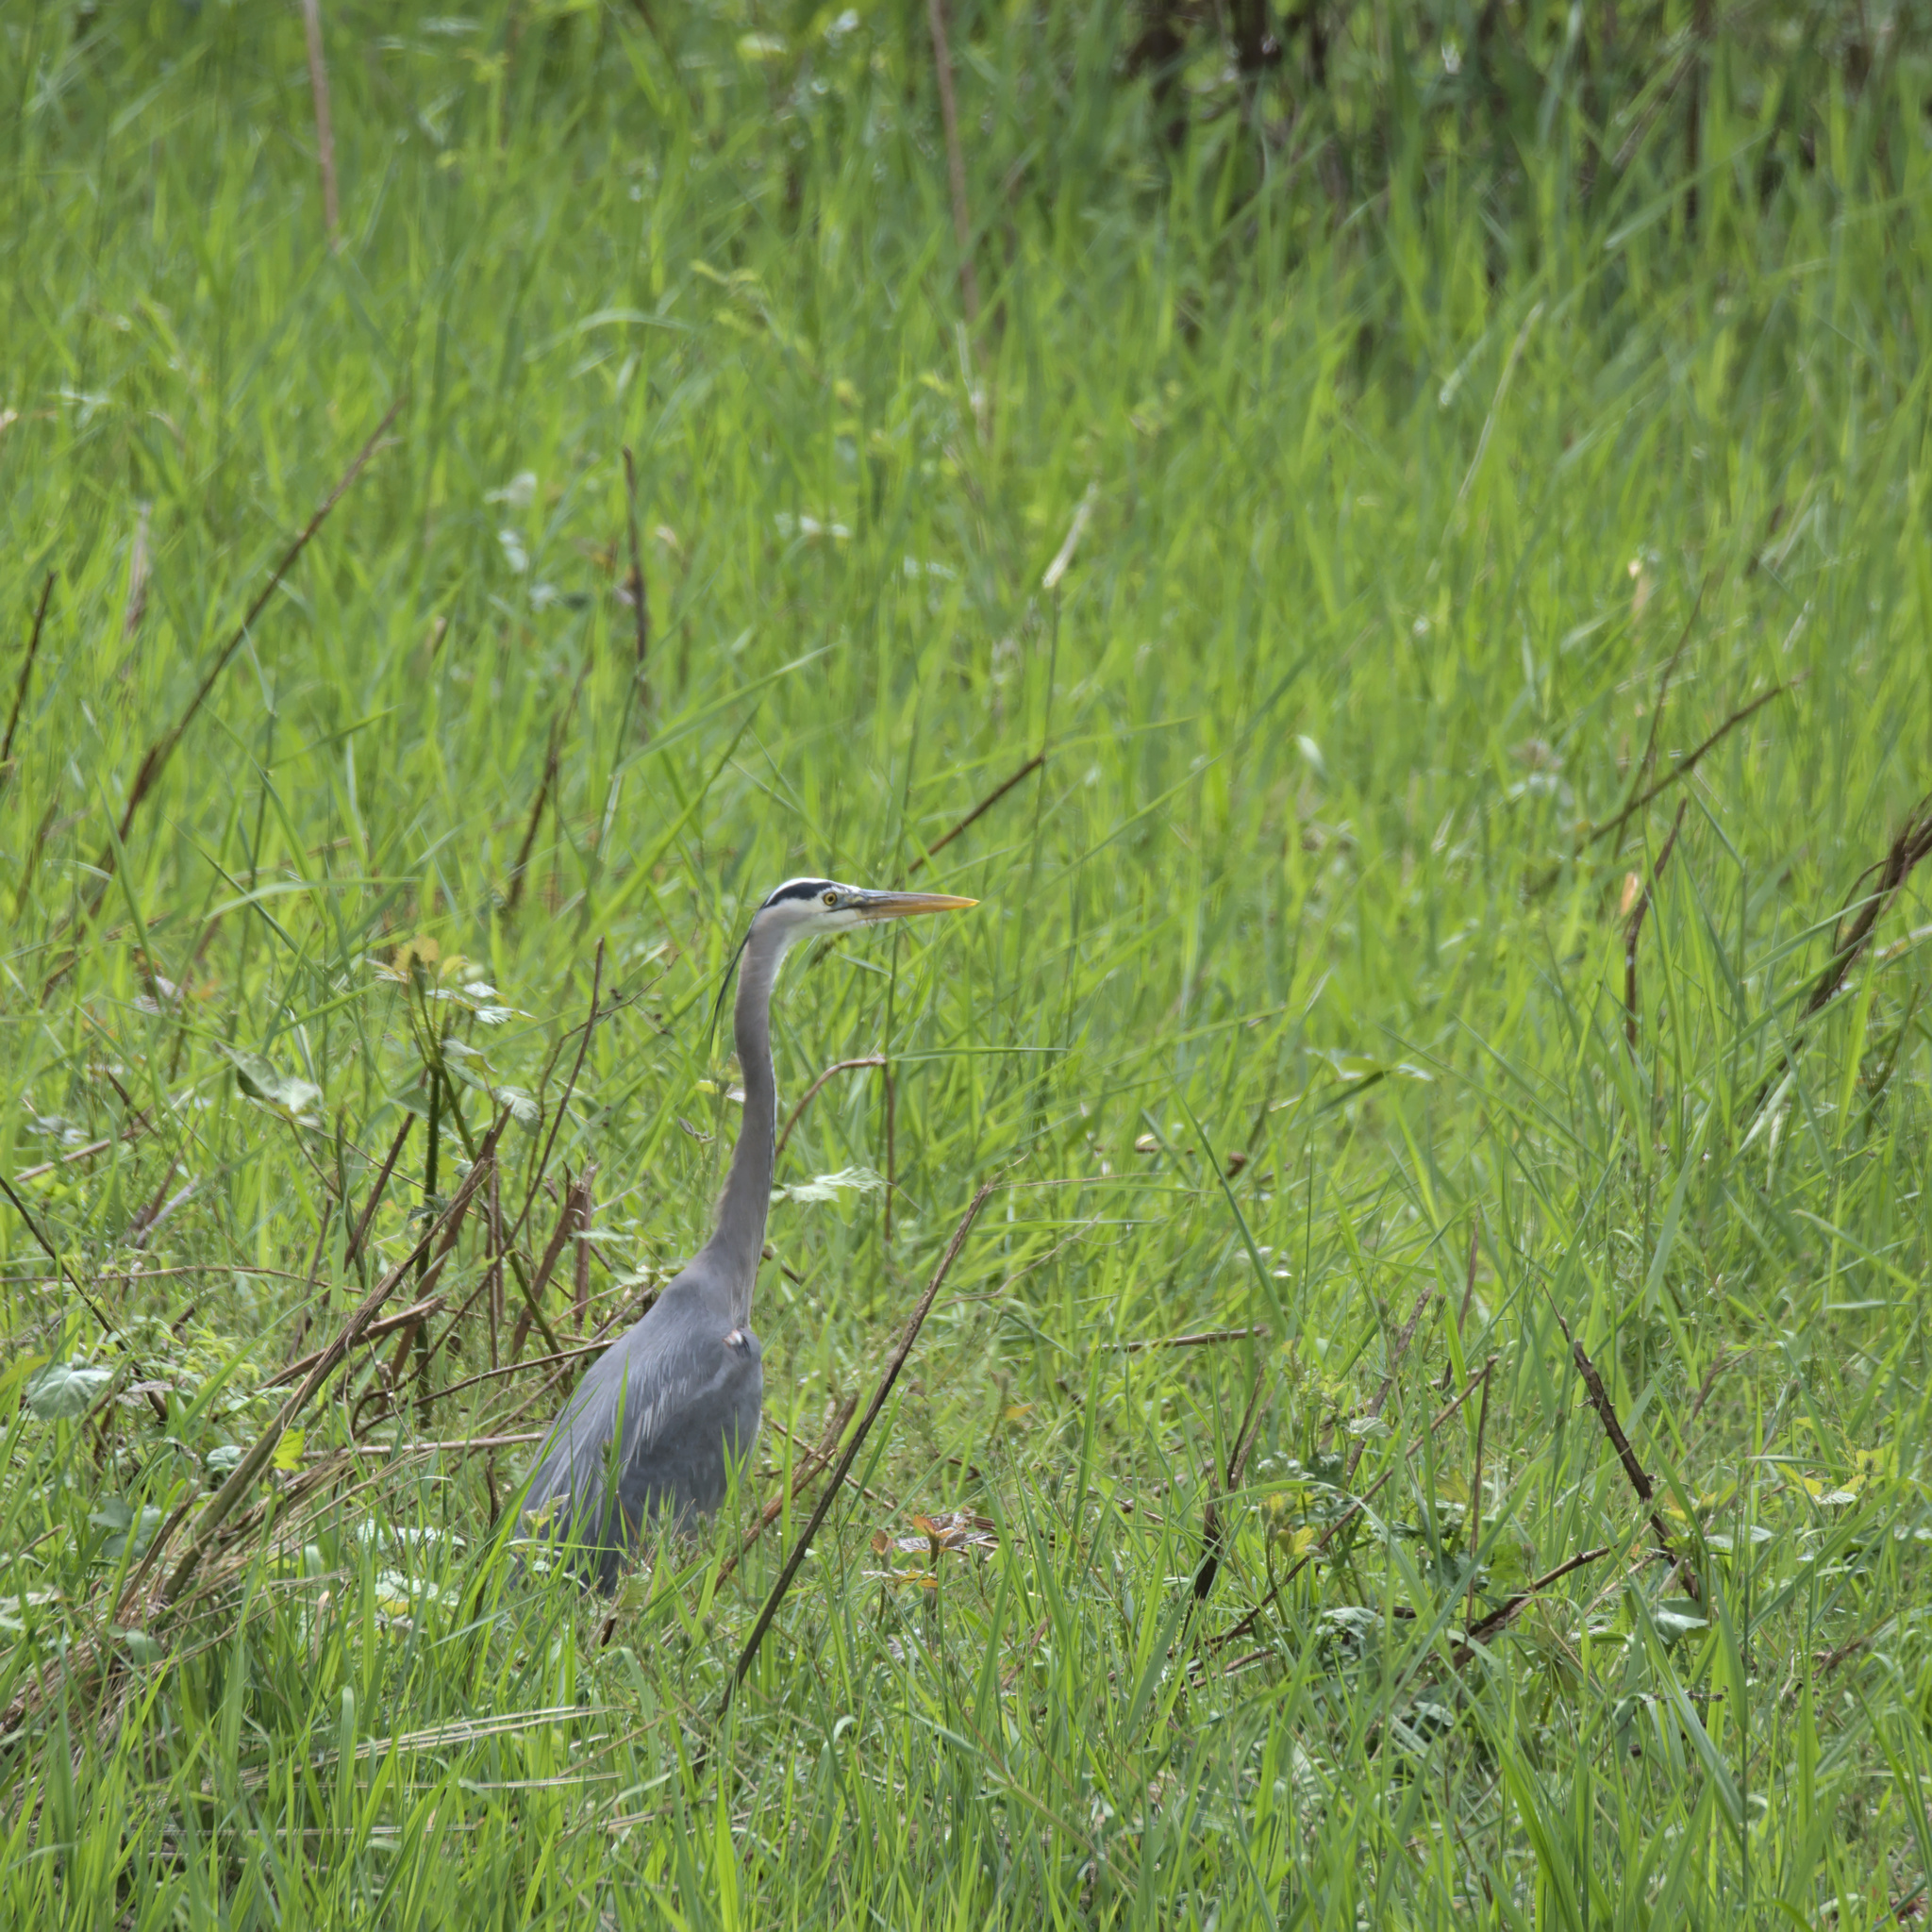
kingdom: Animalia
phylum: Chordata
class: Aves
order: Pelecaniformes
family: Ardeidae
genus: Ardea
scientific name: Ardea herodias
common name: Great blue heron
